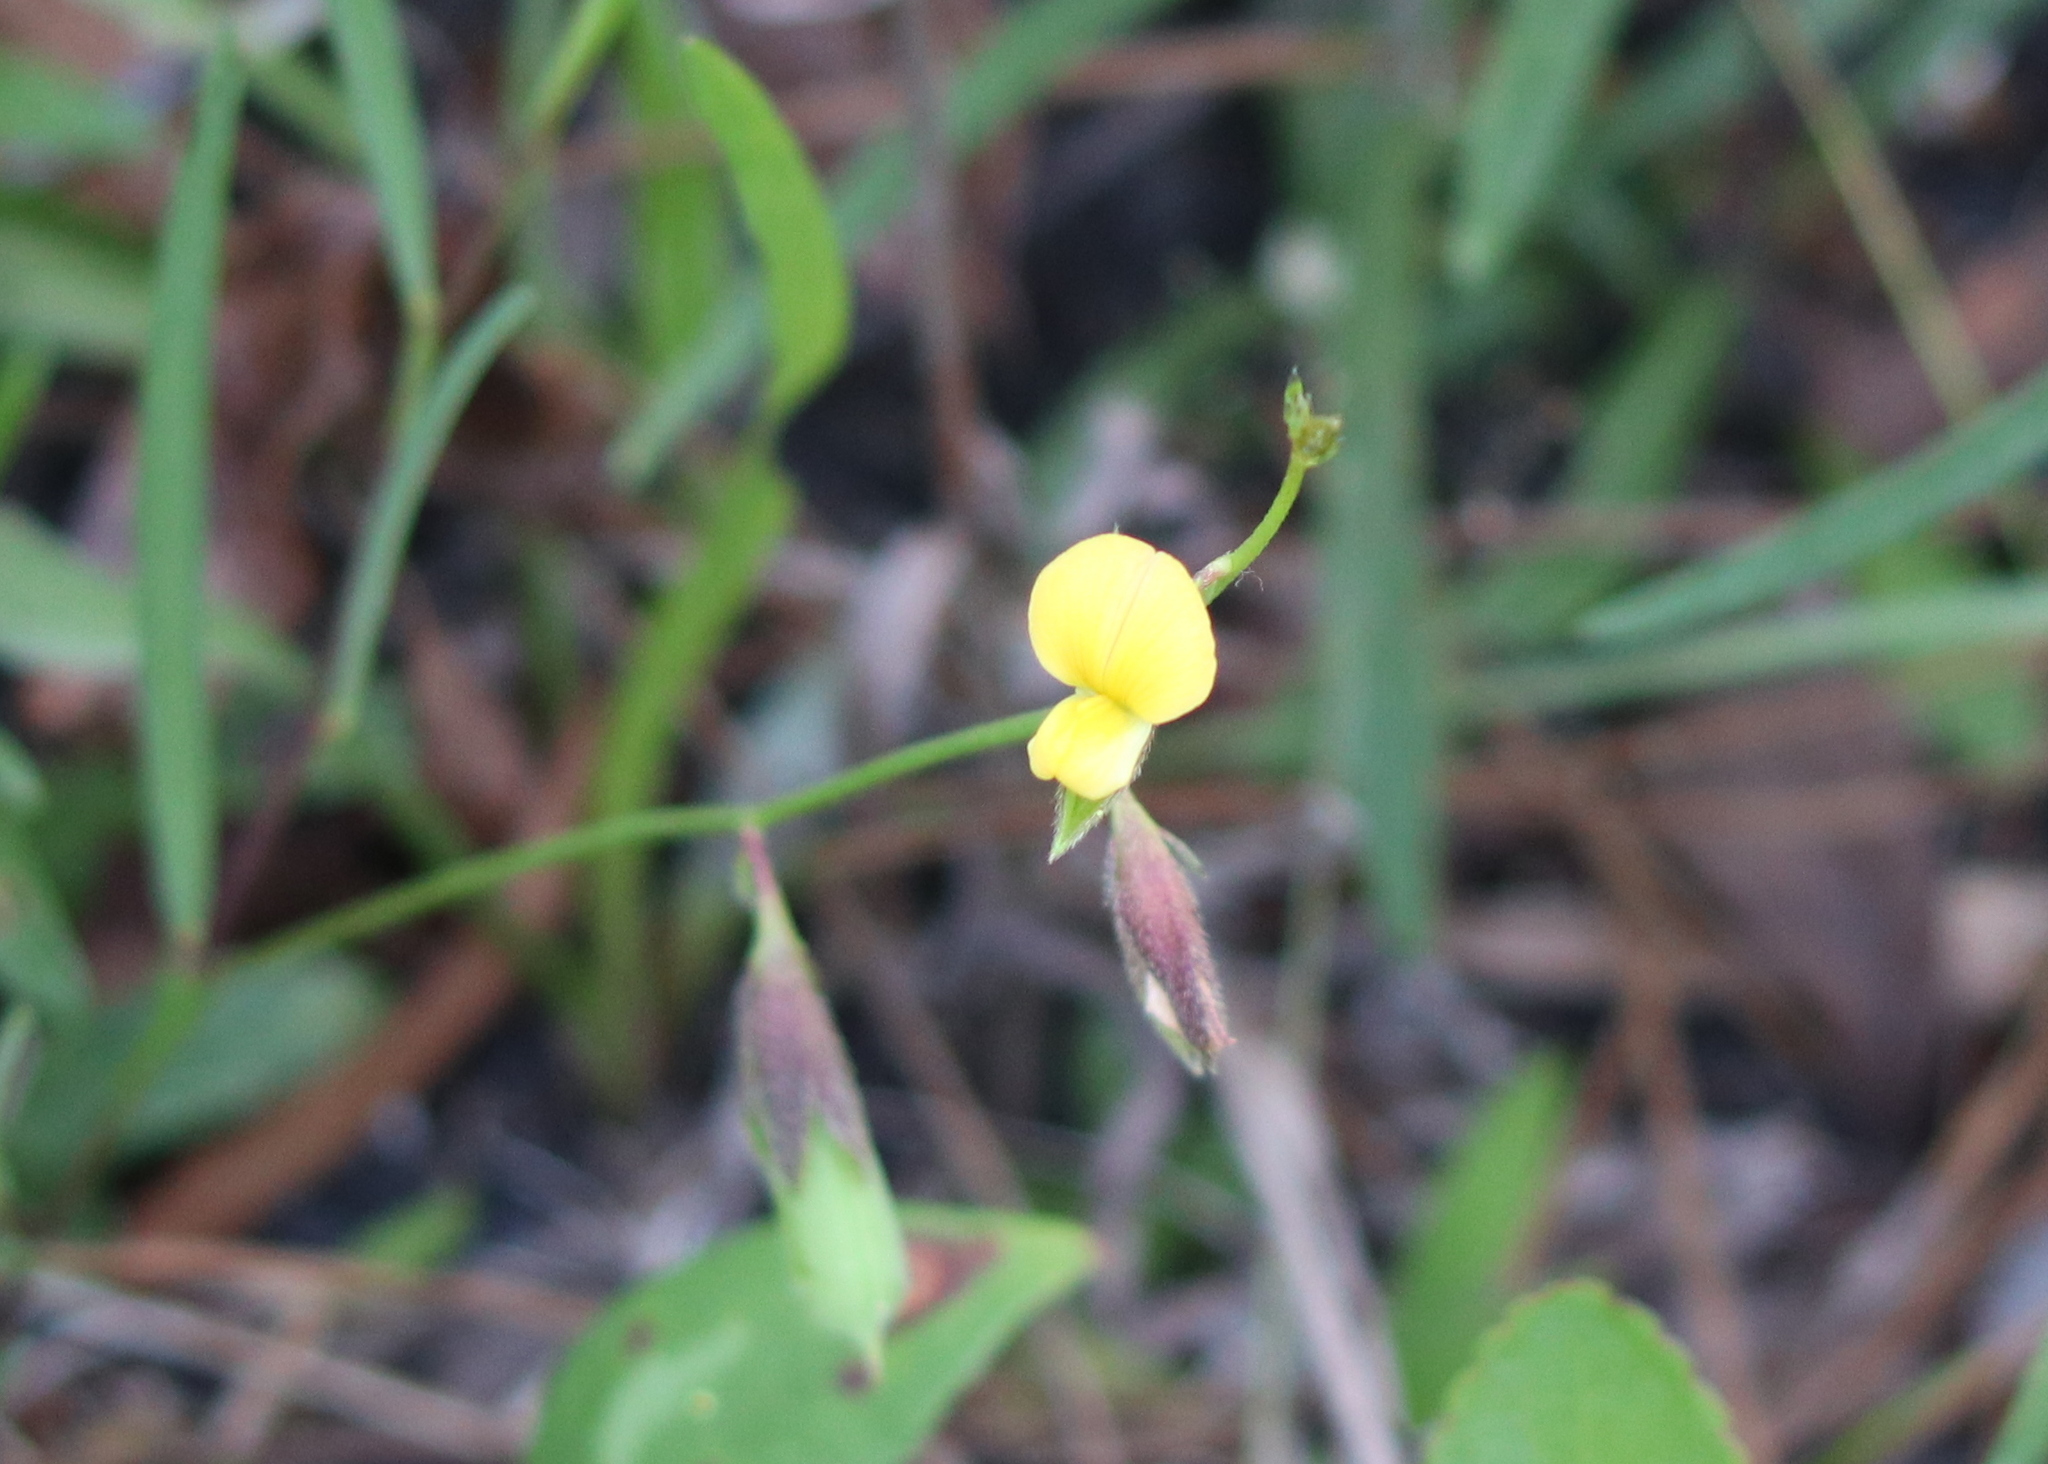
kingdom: Plantae
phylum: Tracheophyta
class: Magnoliopsida
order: Fabales
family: Fabaceae
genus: Crotalaria
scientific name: Crotalaria sagittalis
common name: Arrowhead rattlebox
